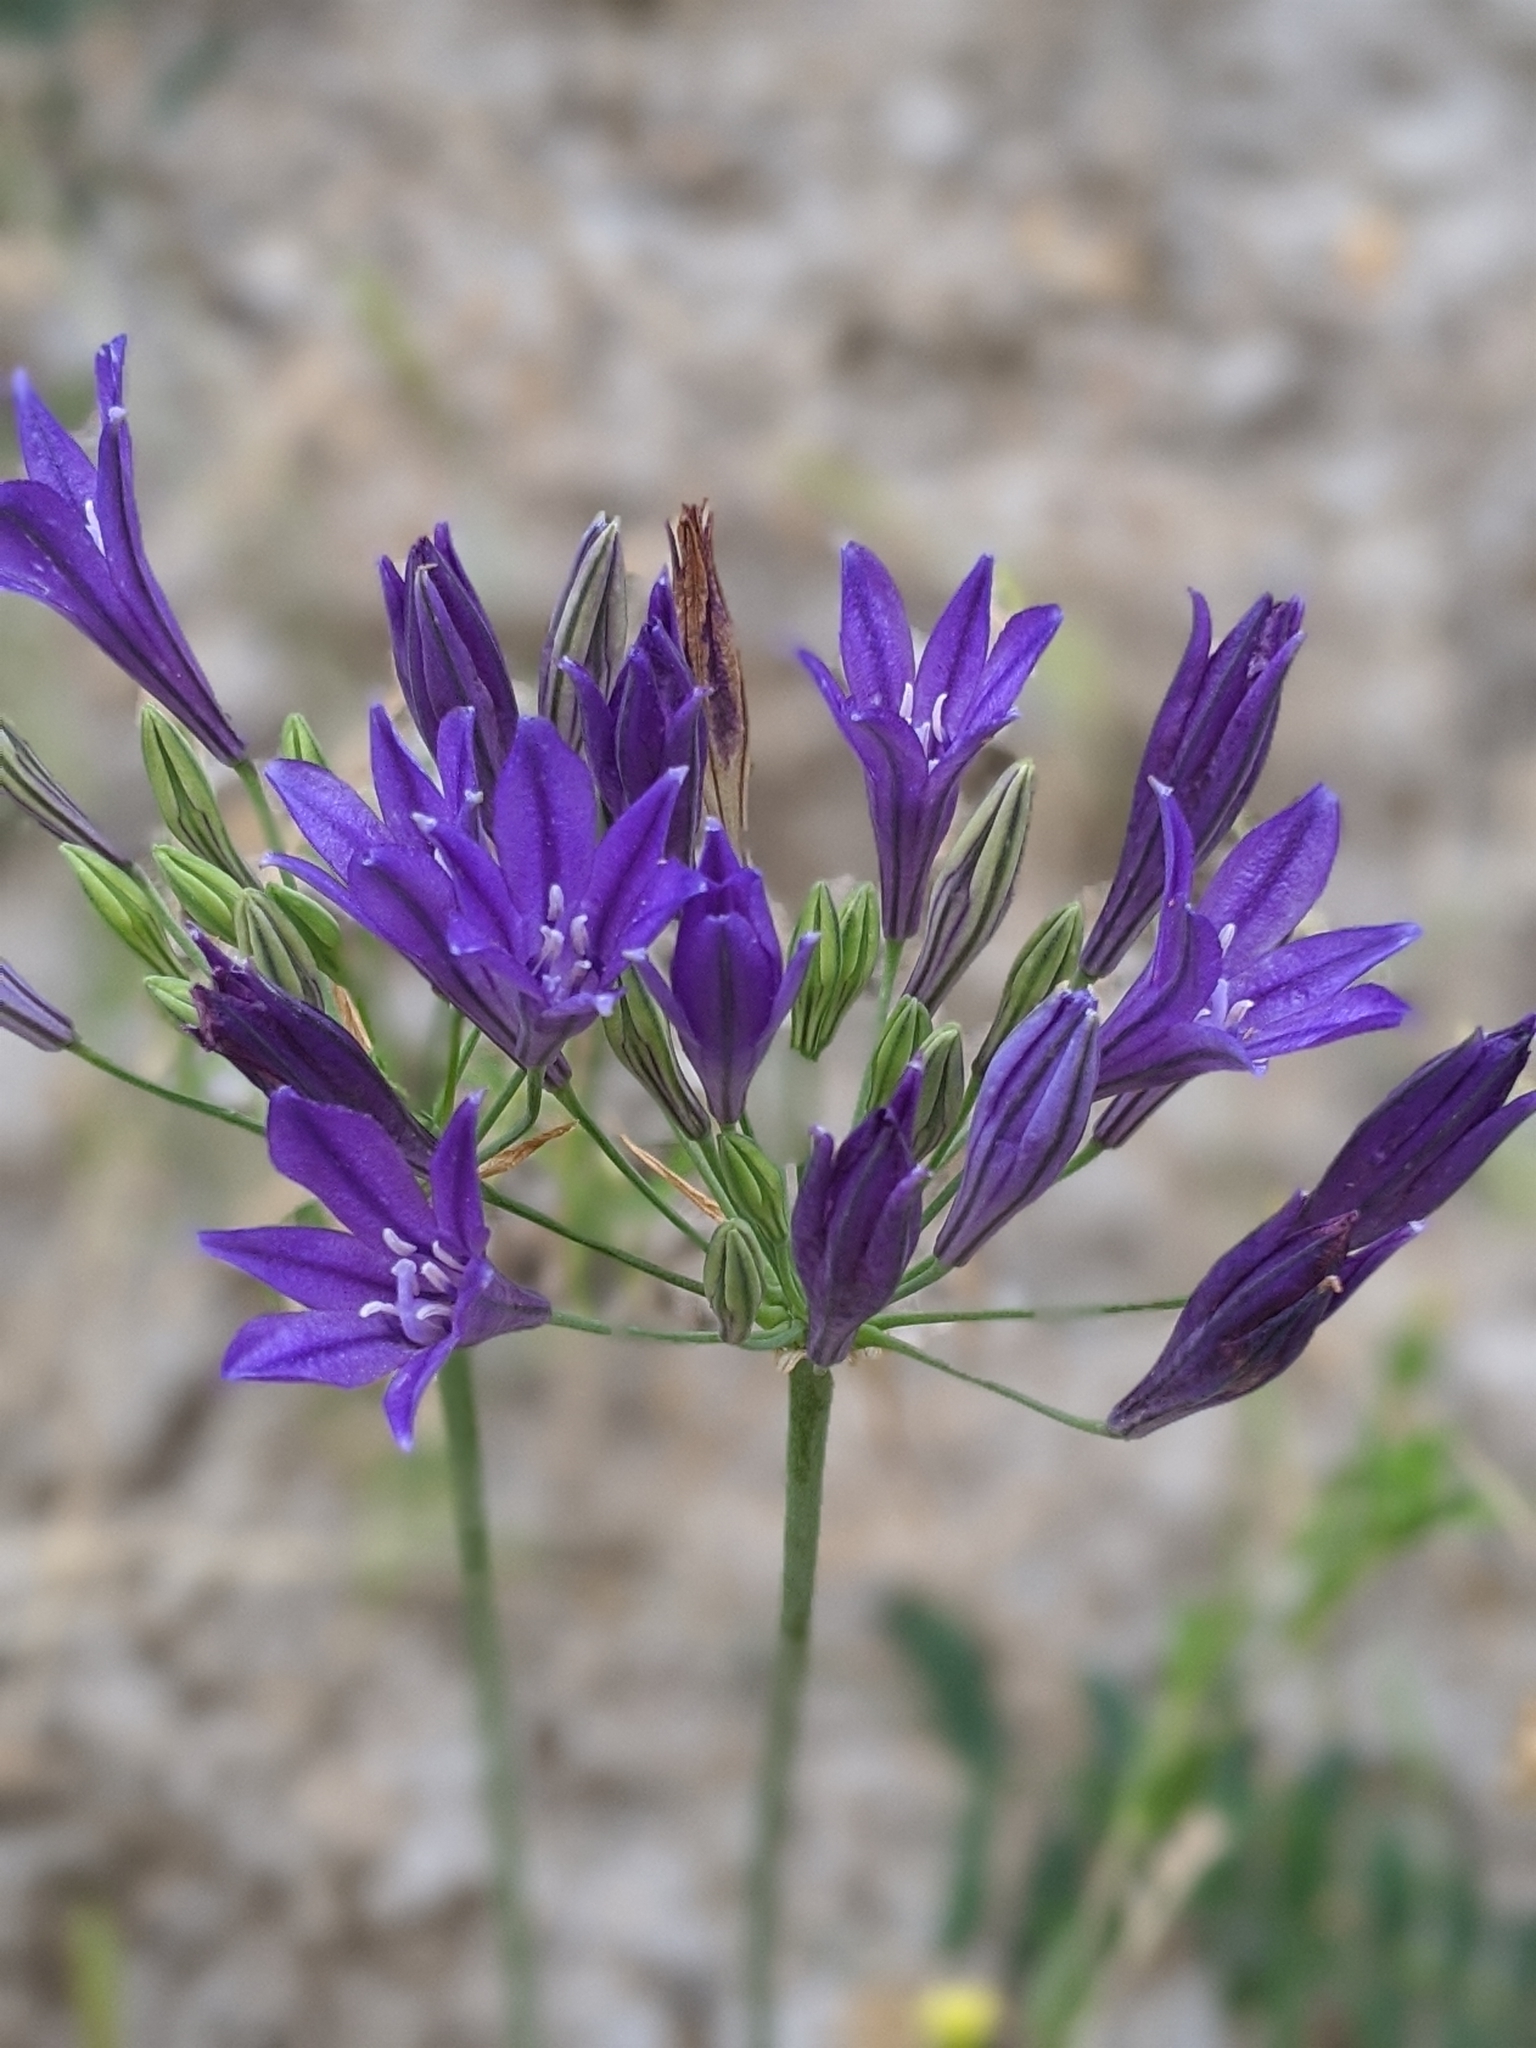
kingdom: Plantae
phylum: Tracheophyta
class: Liliopsida
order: Asparagales
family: Asparagaceae
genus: Triteleia
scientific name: Triteleia laxa
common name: Triplet-lily
